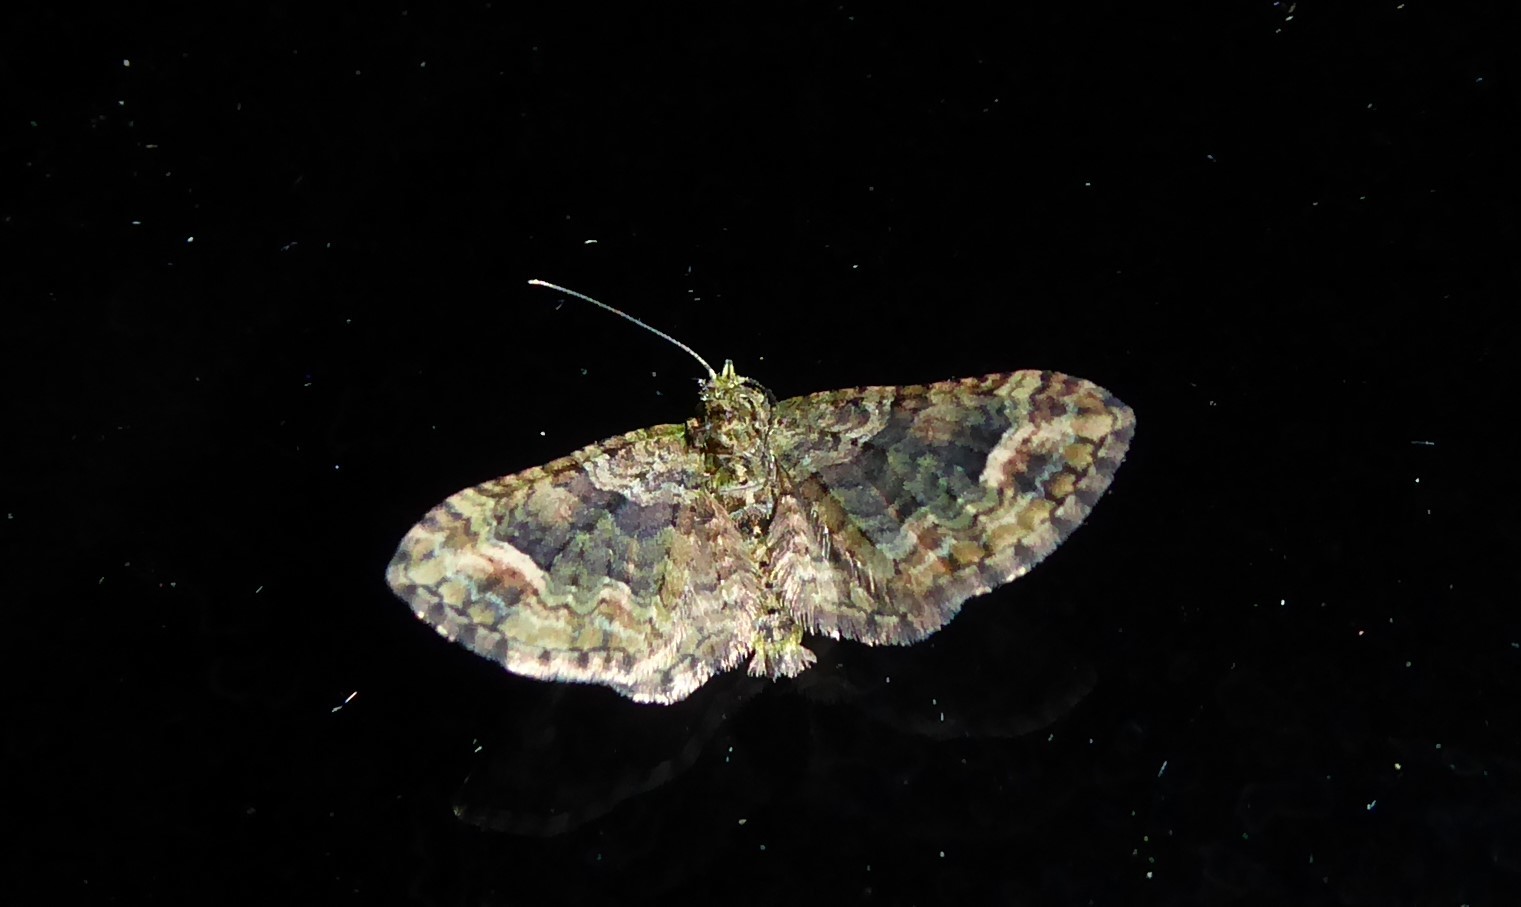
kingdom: Animalia
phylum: Arthropoda
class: Insecta
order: Lepidoptera
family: Geometridae
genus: Idaea
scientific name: Idaea mutanda
